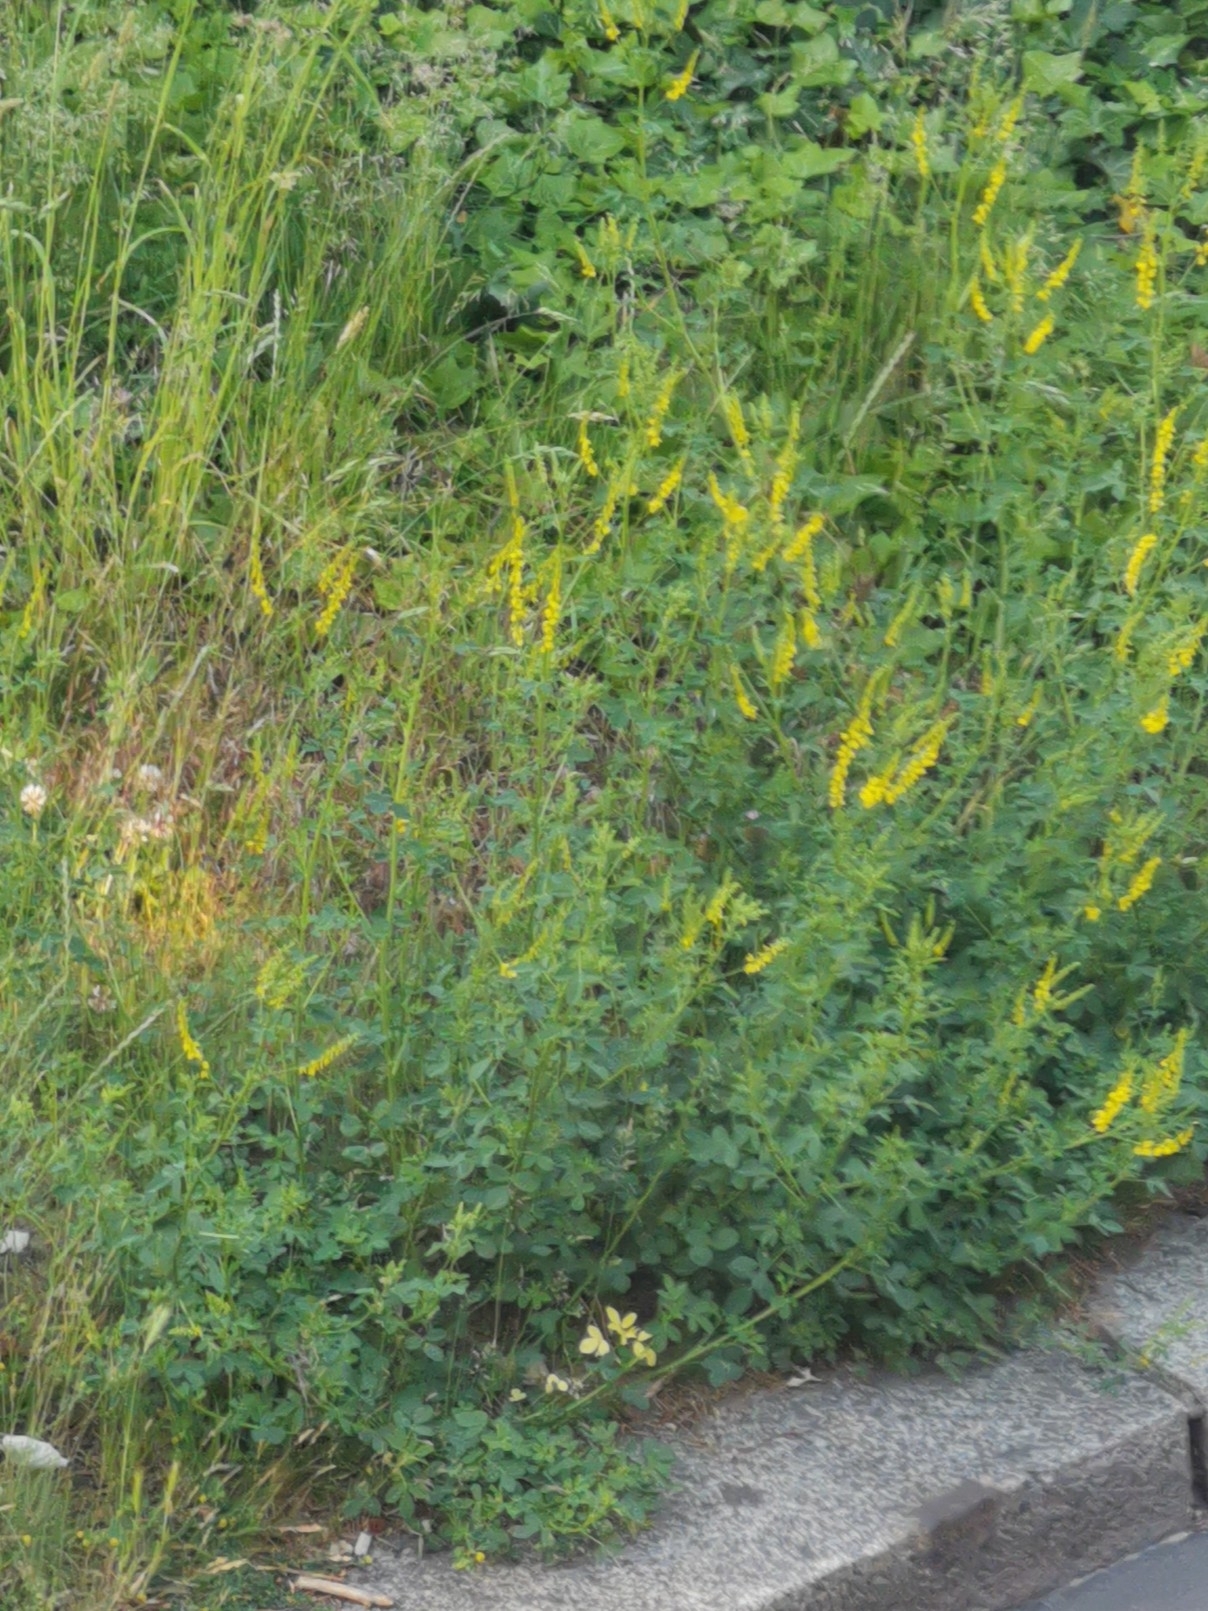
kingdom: Plantae
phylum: Tracheophyta
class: Magnoliopsida
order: Fabales
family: Fabaceae
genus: Melilotus
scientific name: Melilotus officinalis
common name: Sweetclover
